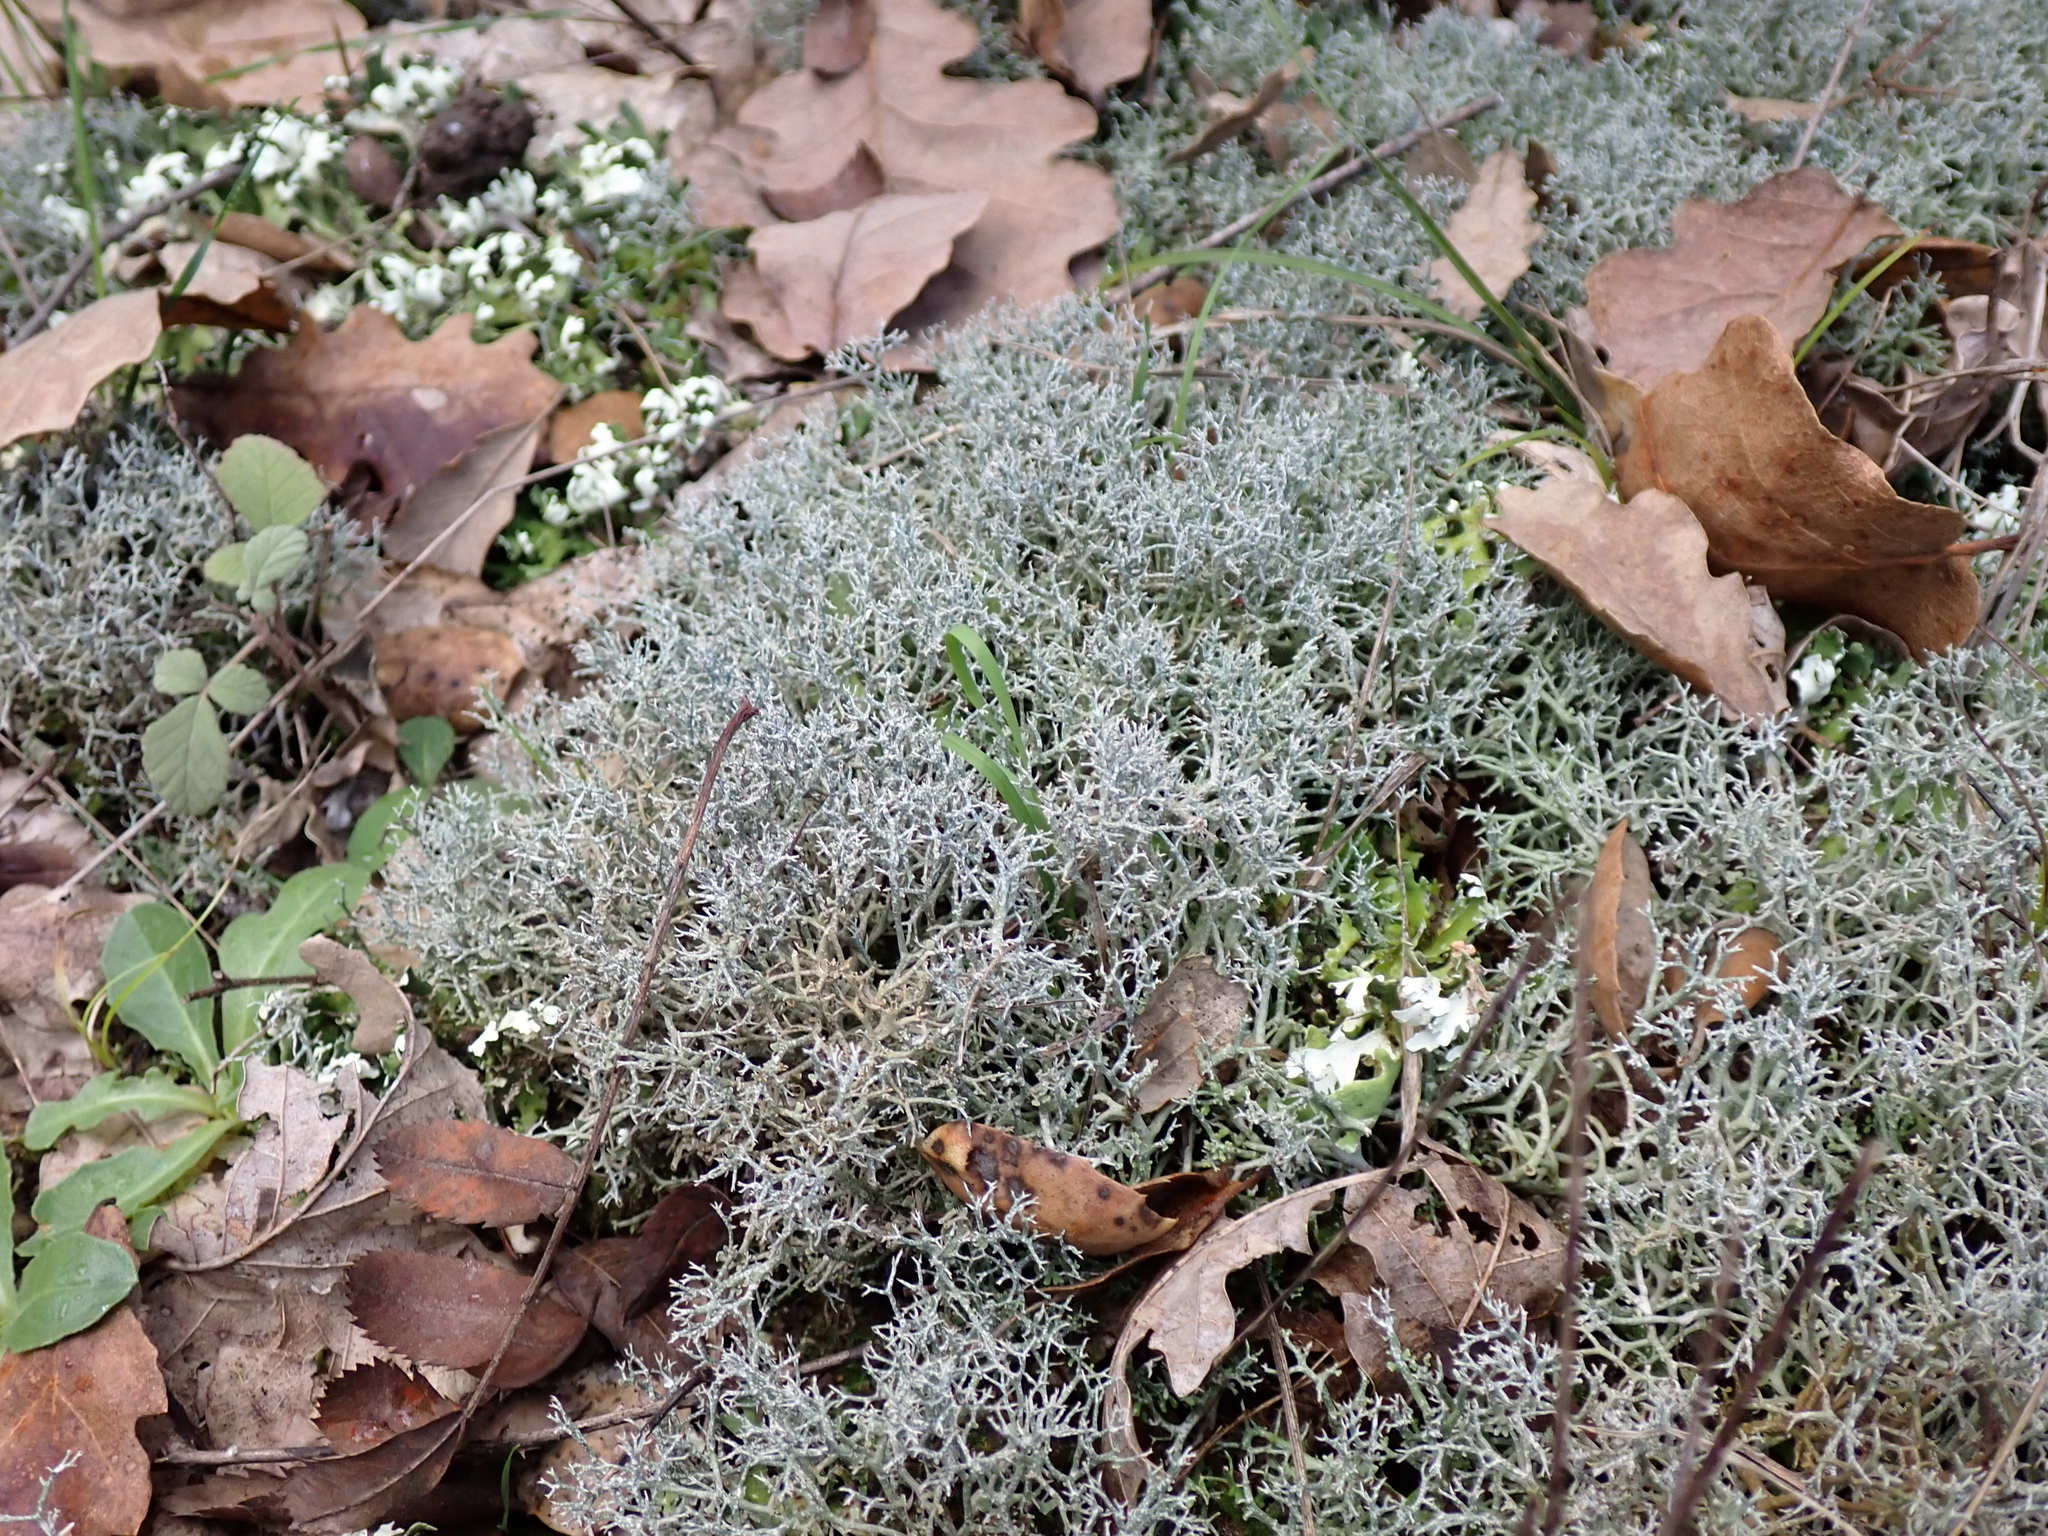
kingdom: Fungi
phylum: Ascomycota
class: Lecanoromycetes
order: Lecanorales
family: Cladoniaceae
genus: Cladonia
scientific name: Cladonia rangiformis
